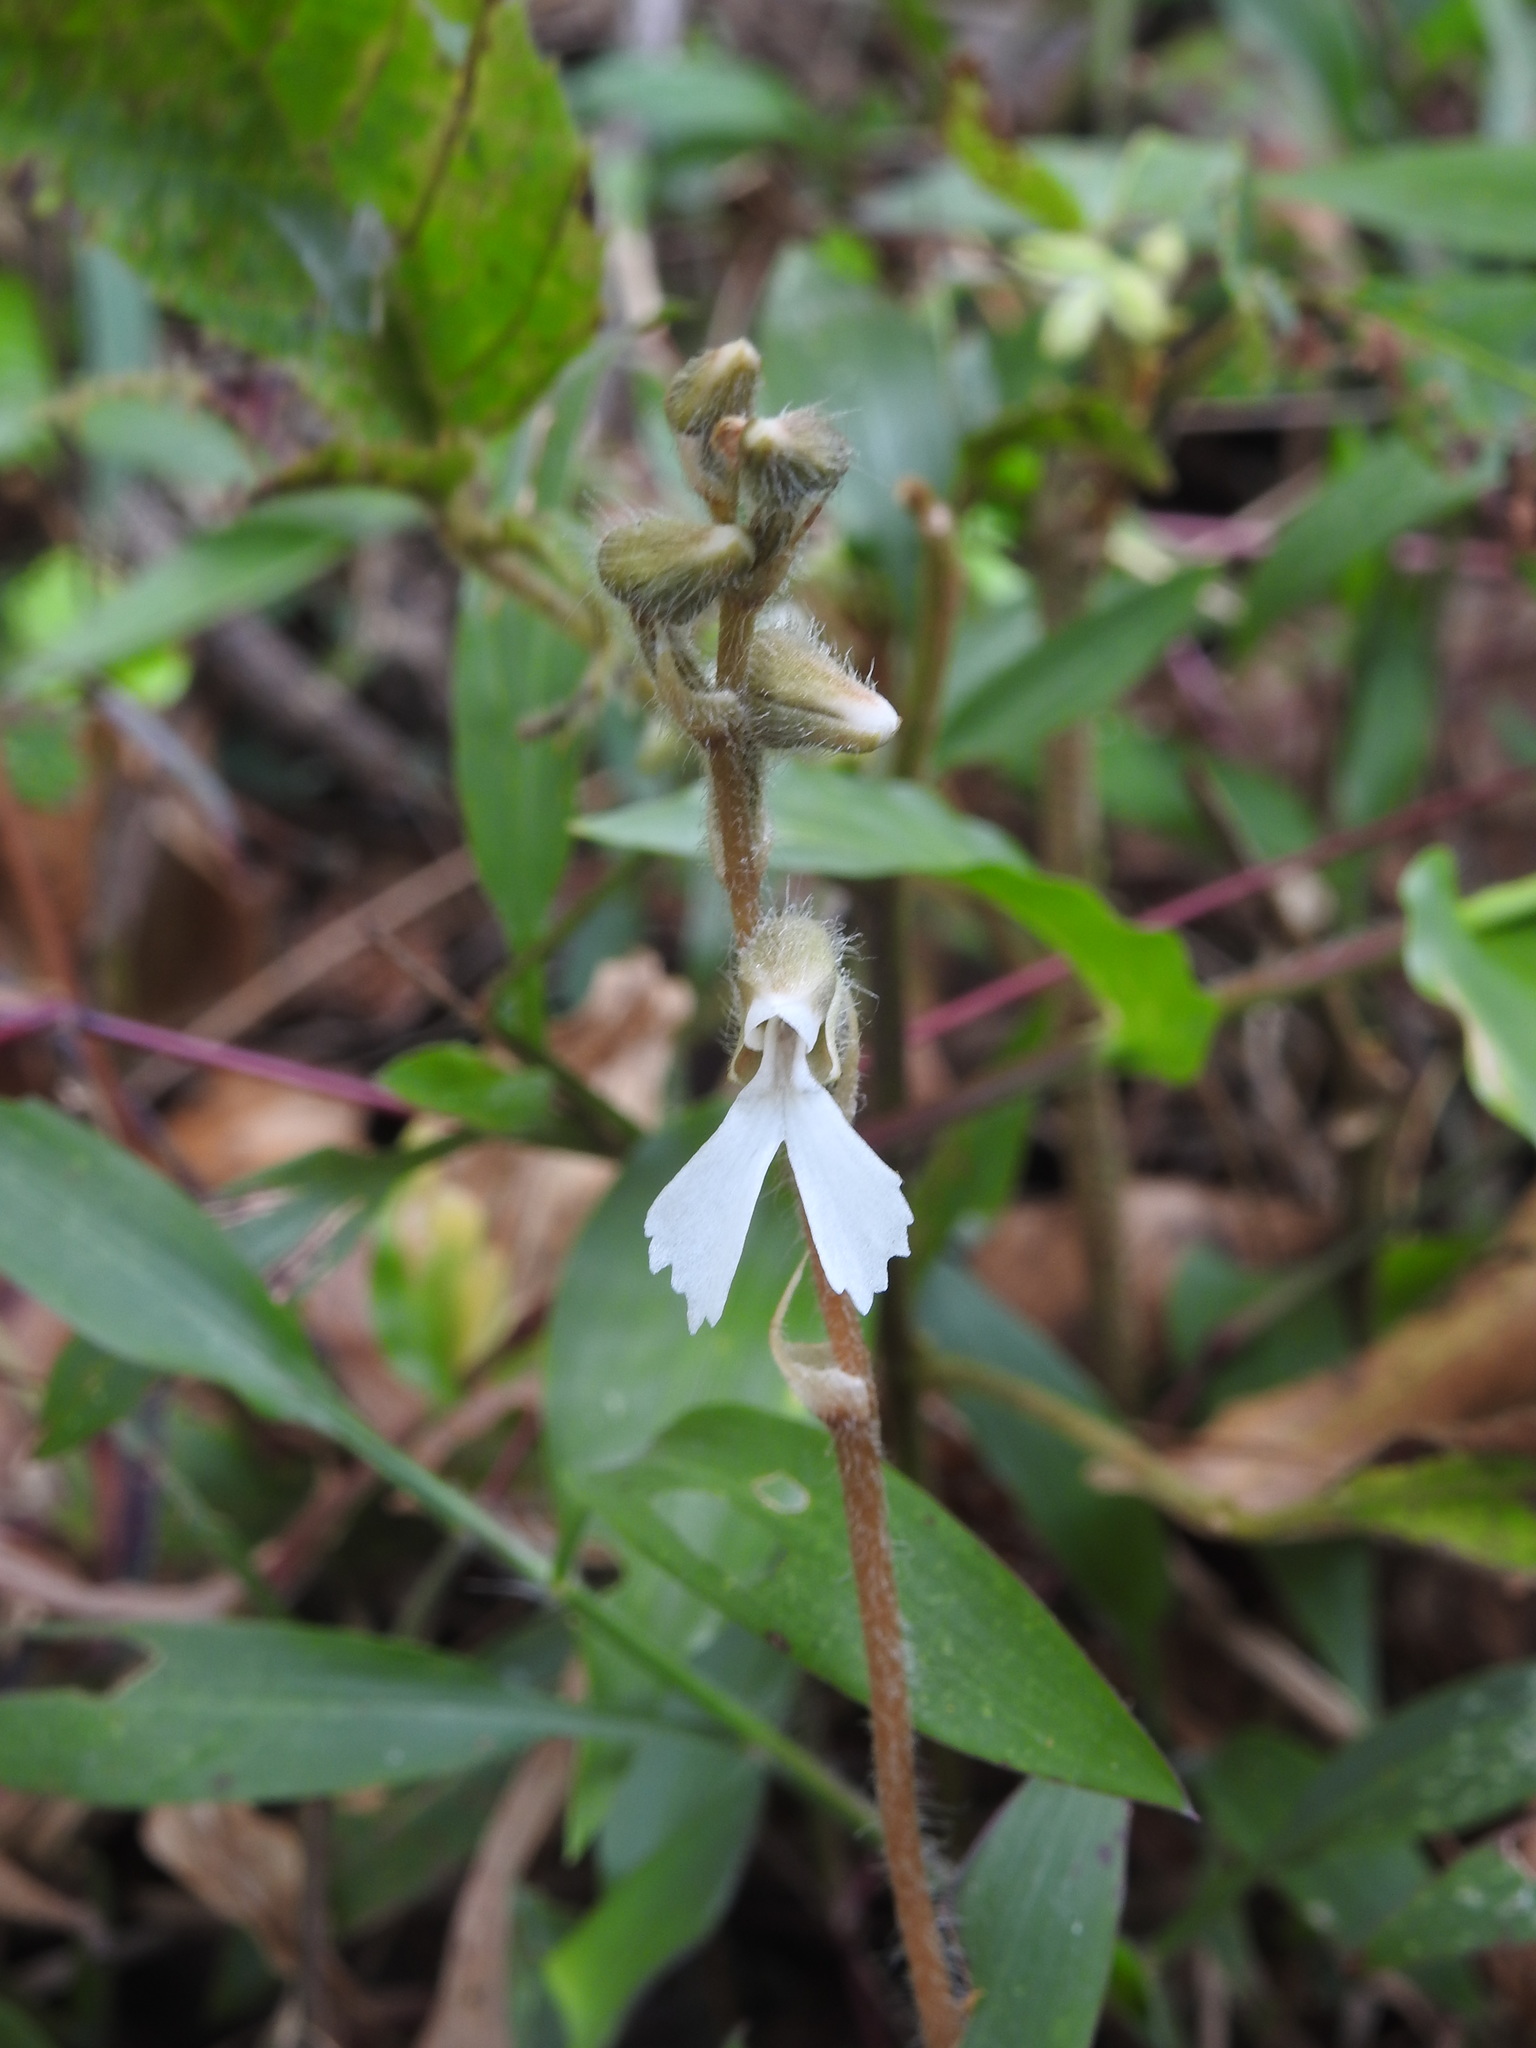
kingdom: Plantae
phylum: Tracheophyta
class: Liliopsida
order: Asparagales
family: Orchidaceae
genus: Zeuxine
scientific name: Zeuxine longilabris
